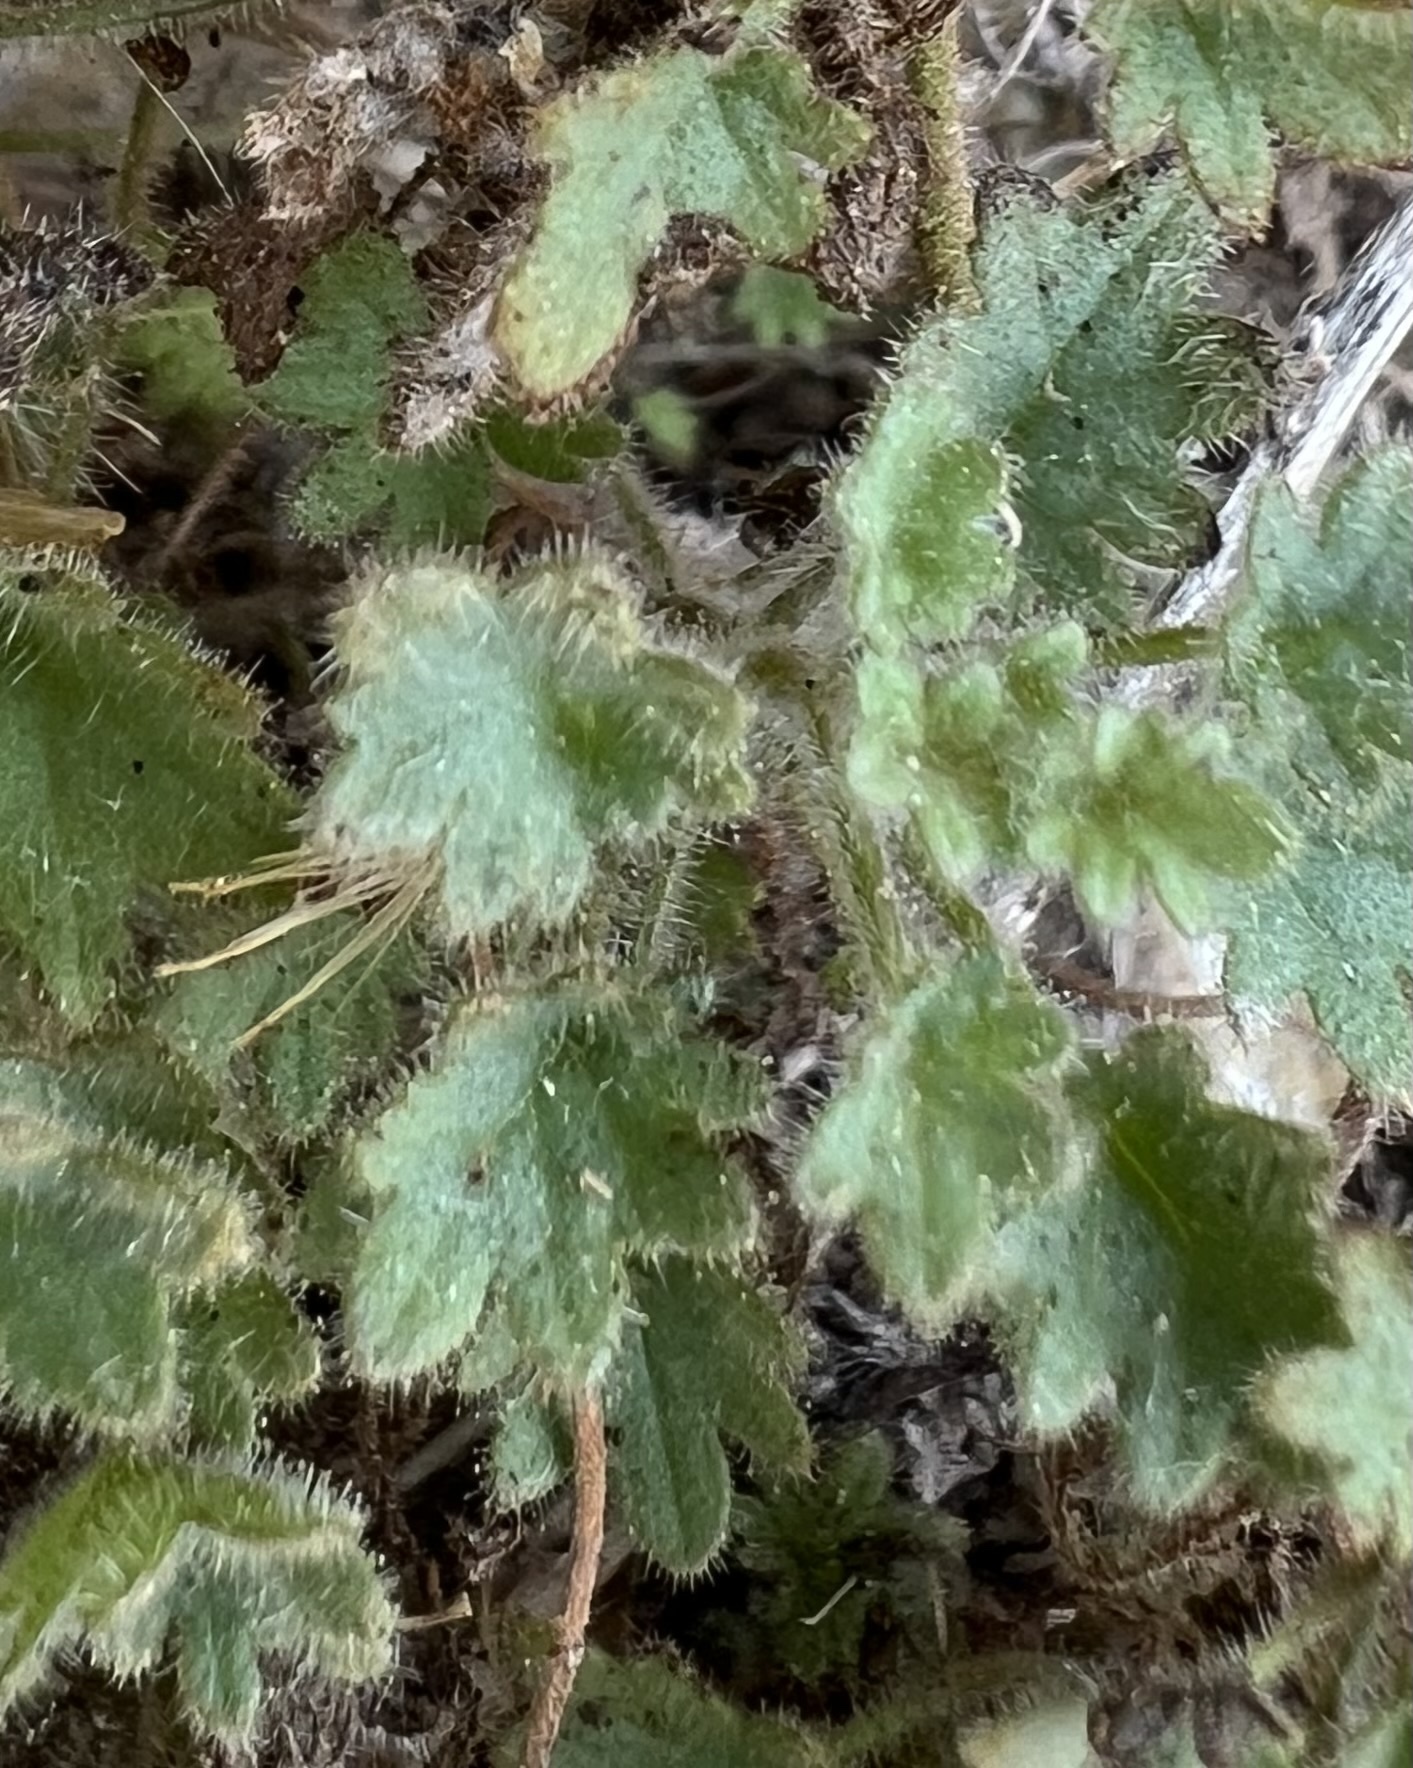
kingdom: Plantae
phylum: Tracheophyta
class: Magnoliopsida
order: Boraginales
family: Hydrophyllaceae
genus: Phacelia
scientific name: Phacelia perityloides
